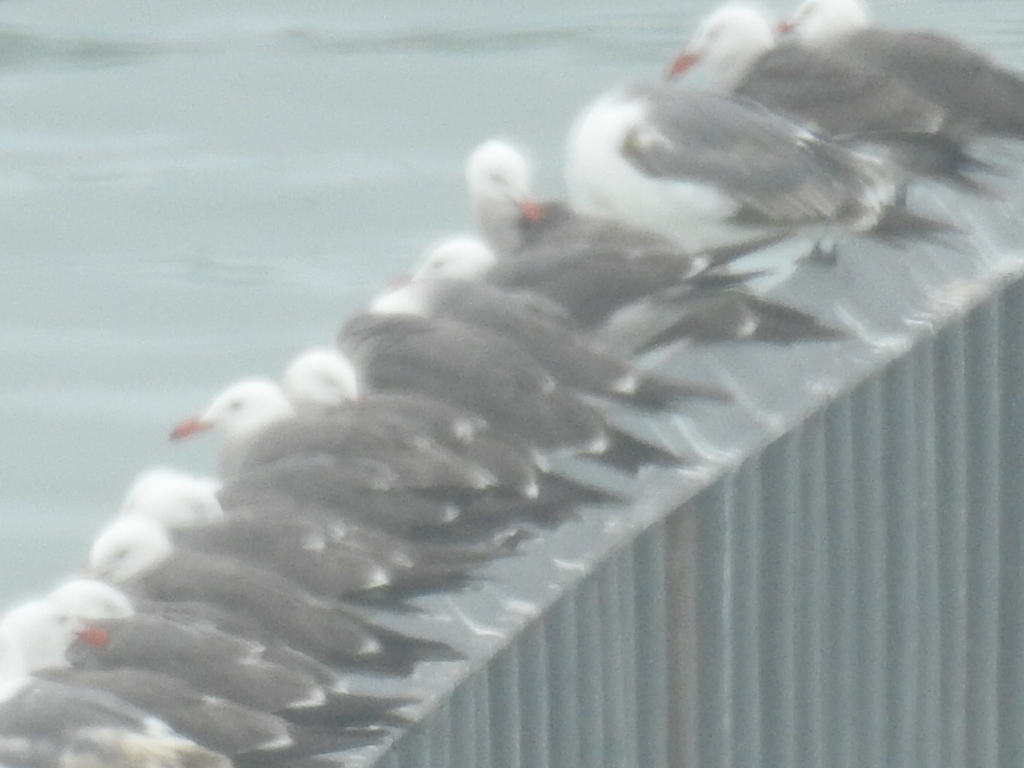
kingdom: Animalia
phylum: Chordata
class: Aves
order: Charadriiformes
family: Laridae
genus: Larus
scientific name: Larus heermanni
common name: Heermann's gull
